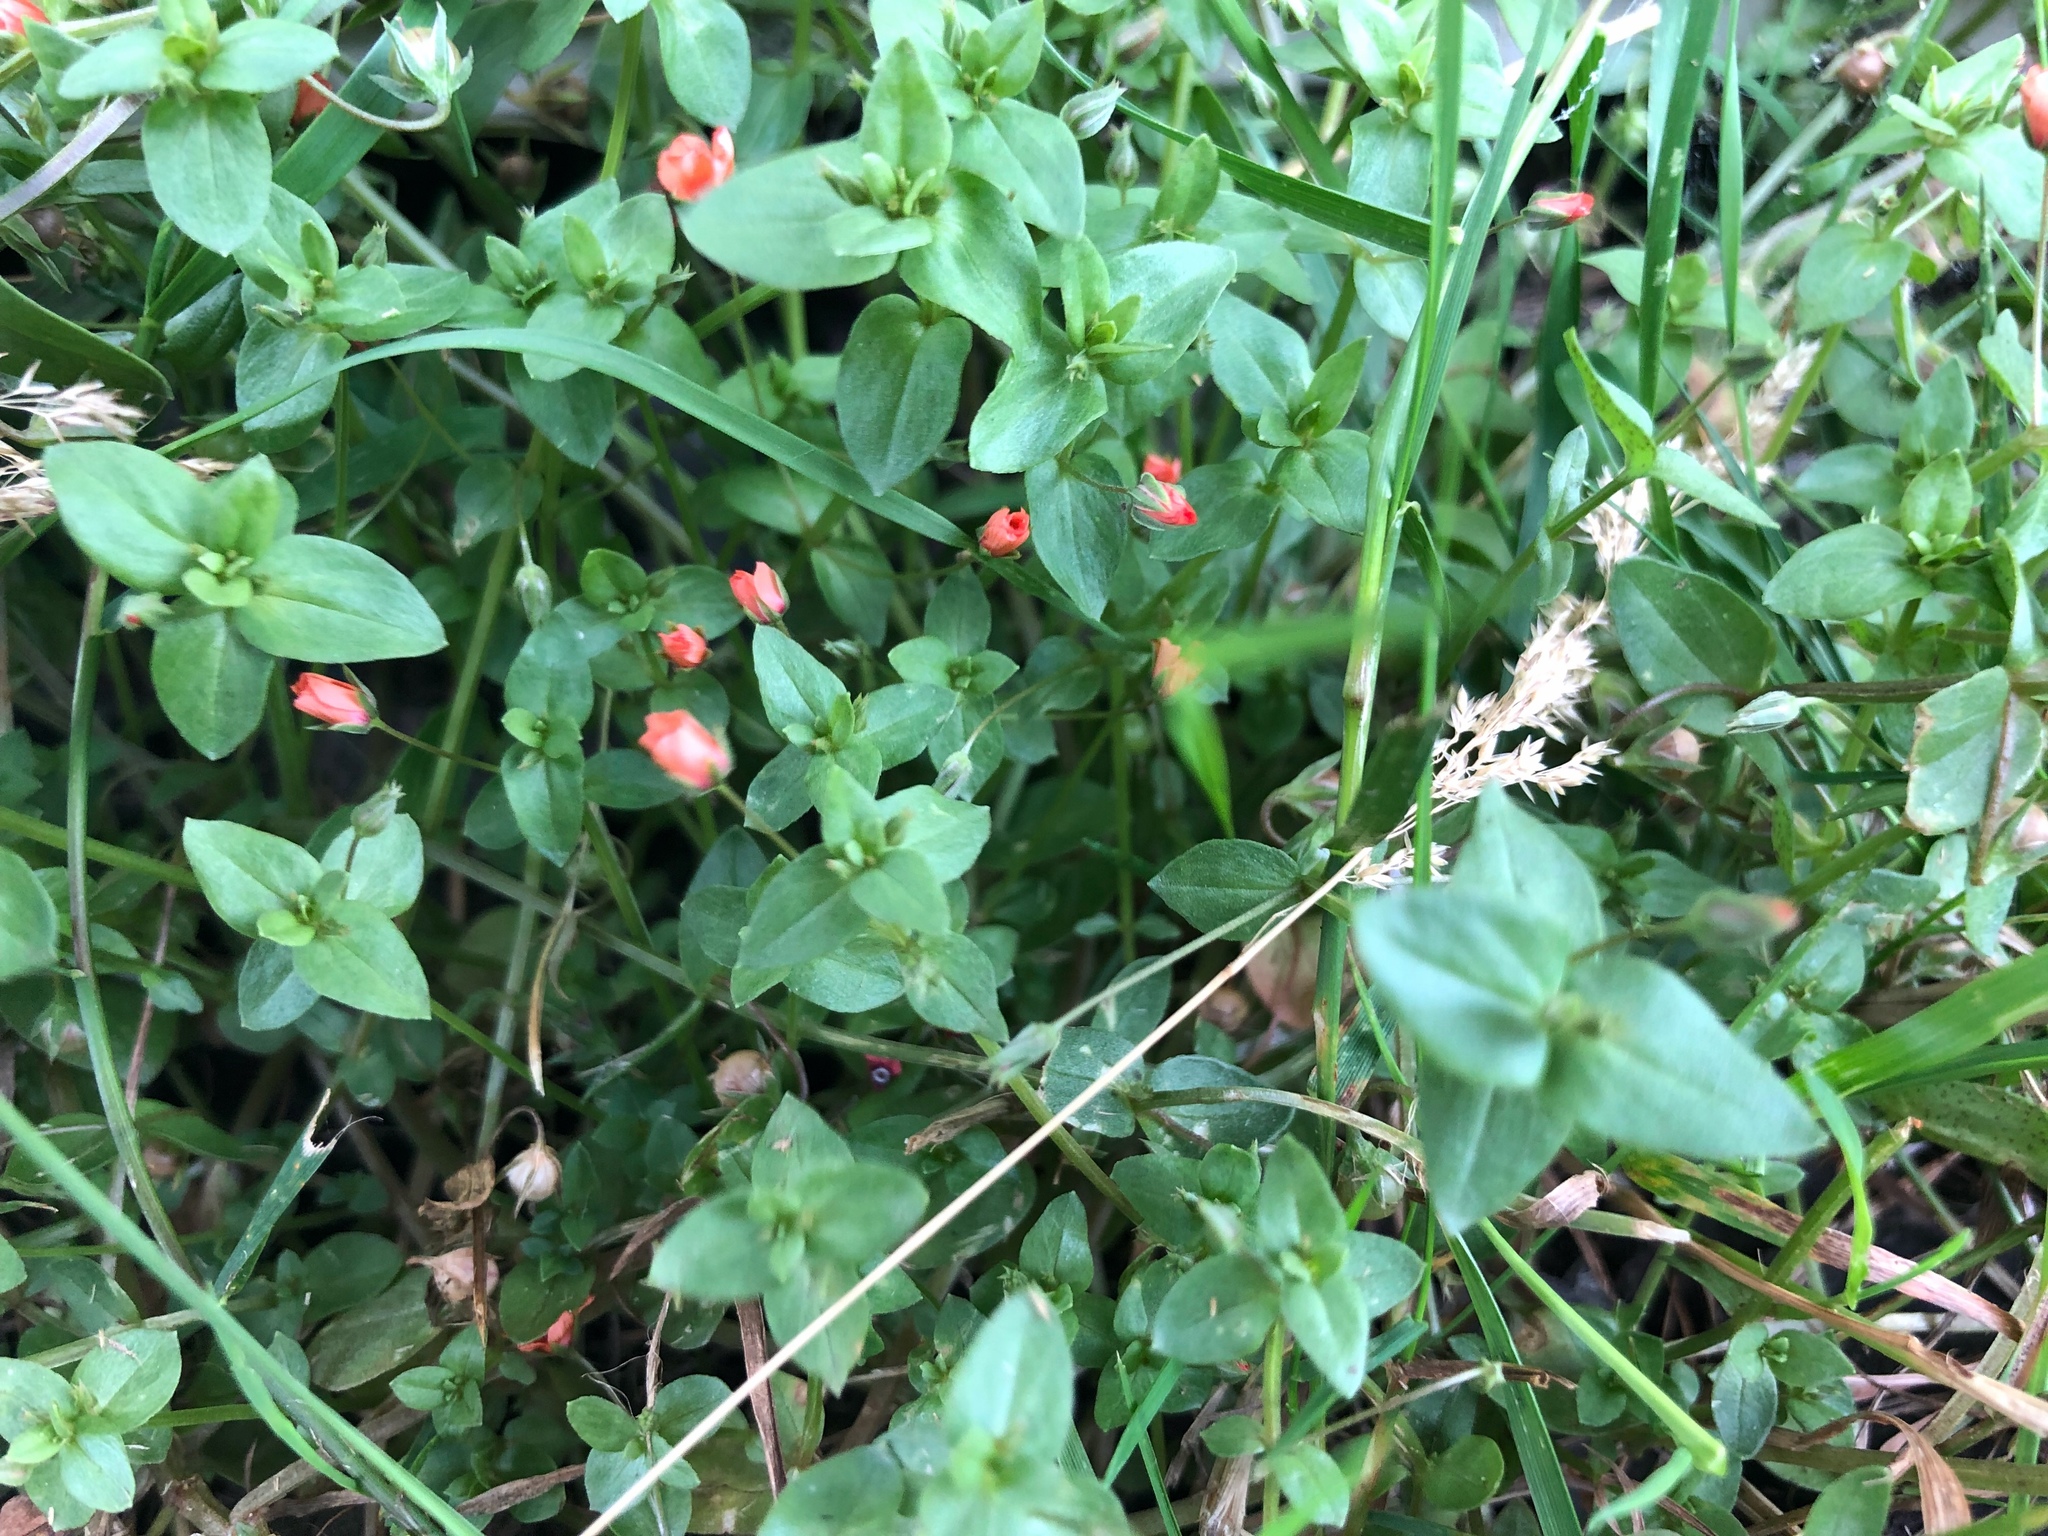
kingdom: Plantae
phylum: Tracheophyta
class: Magnoliopsida
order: Ericales
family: Primulaceae
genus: Lysimachia
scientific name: Lysimachia arvensis
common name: Scarlet pimpernel
